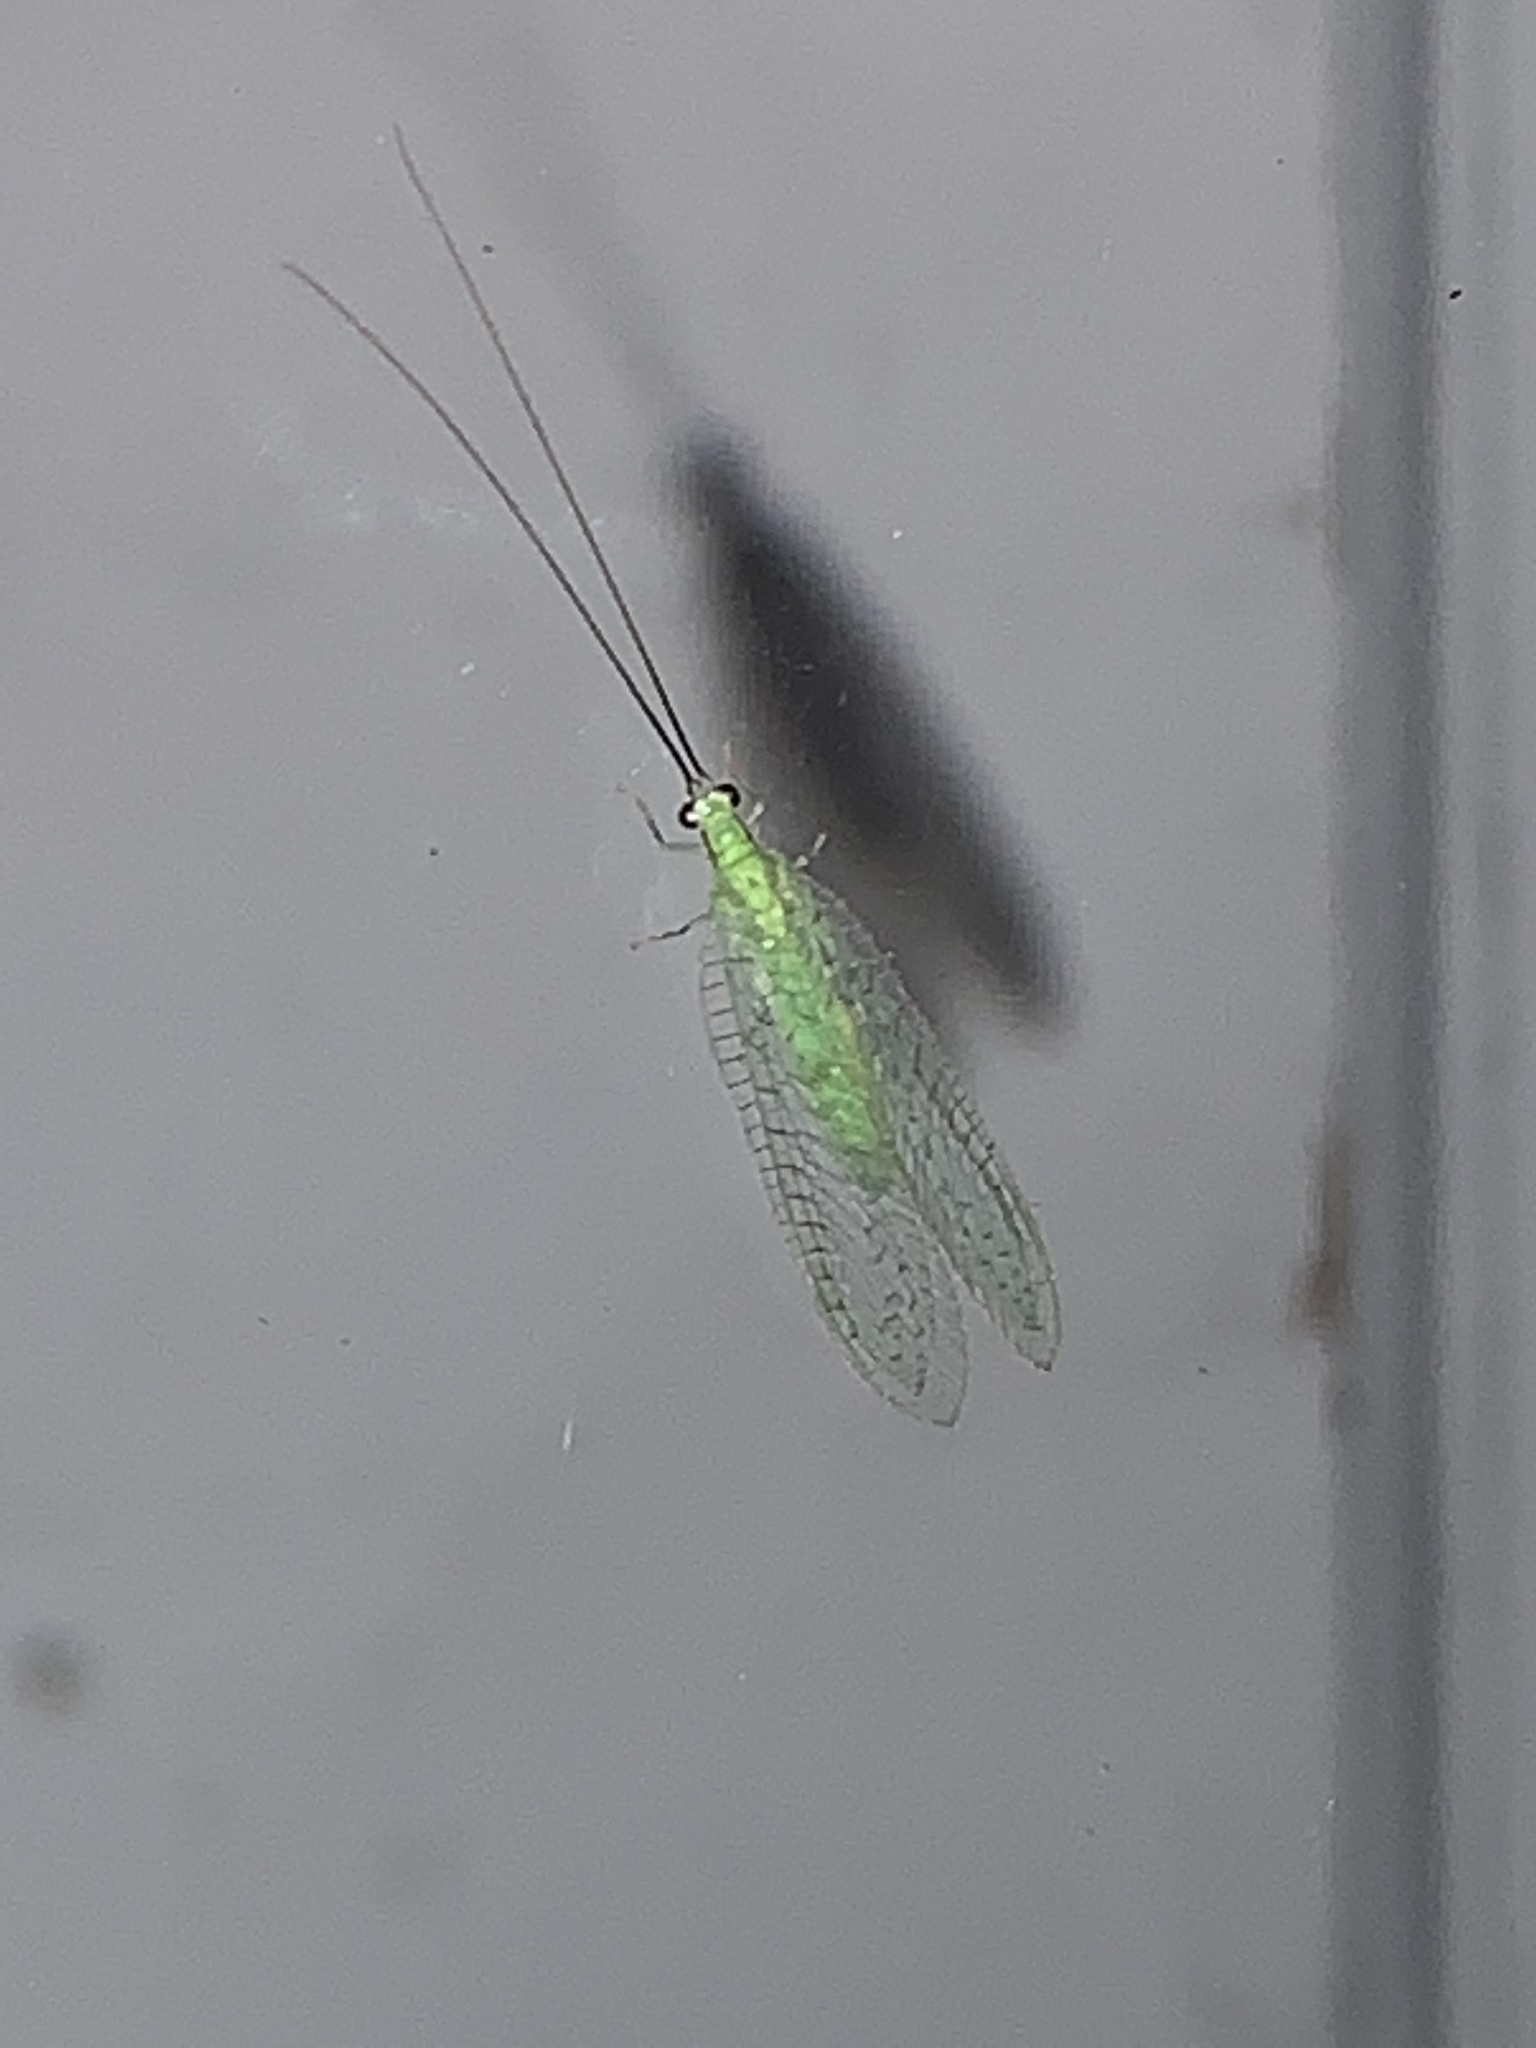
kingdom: Animalia
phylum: Arthropoda
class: Insecta
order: Neuroptera
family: Chrysopidae
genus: Ceraeochrysa
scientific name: Ceraeochrysa lineaticornis
